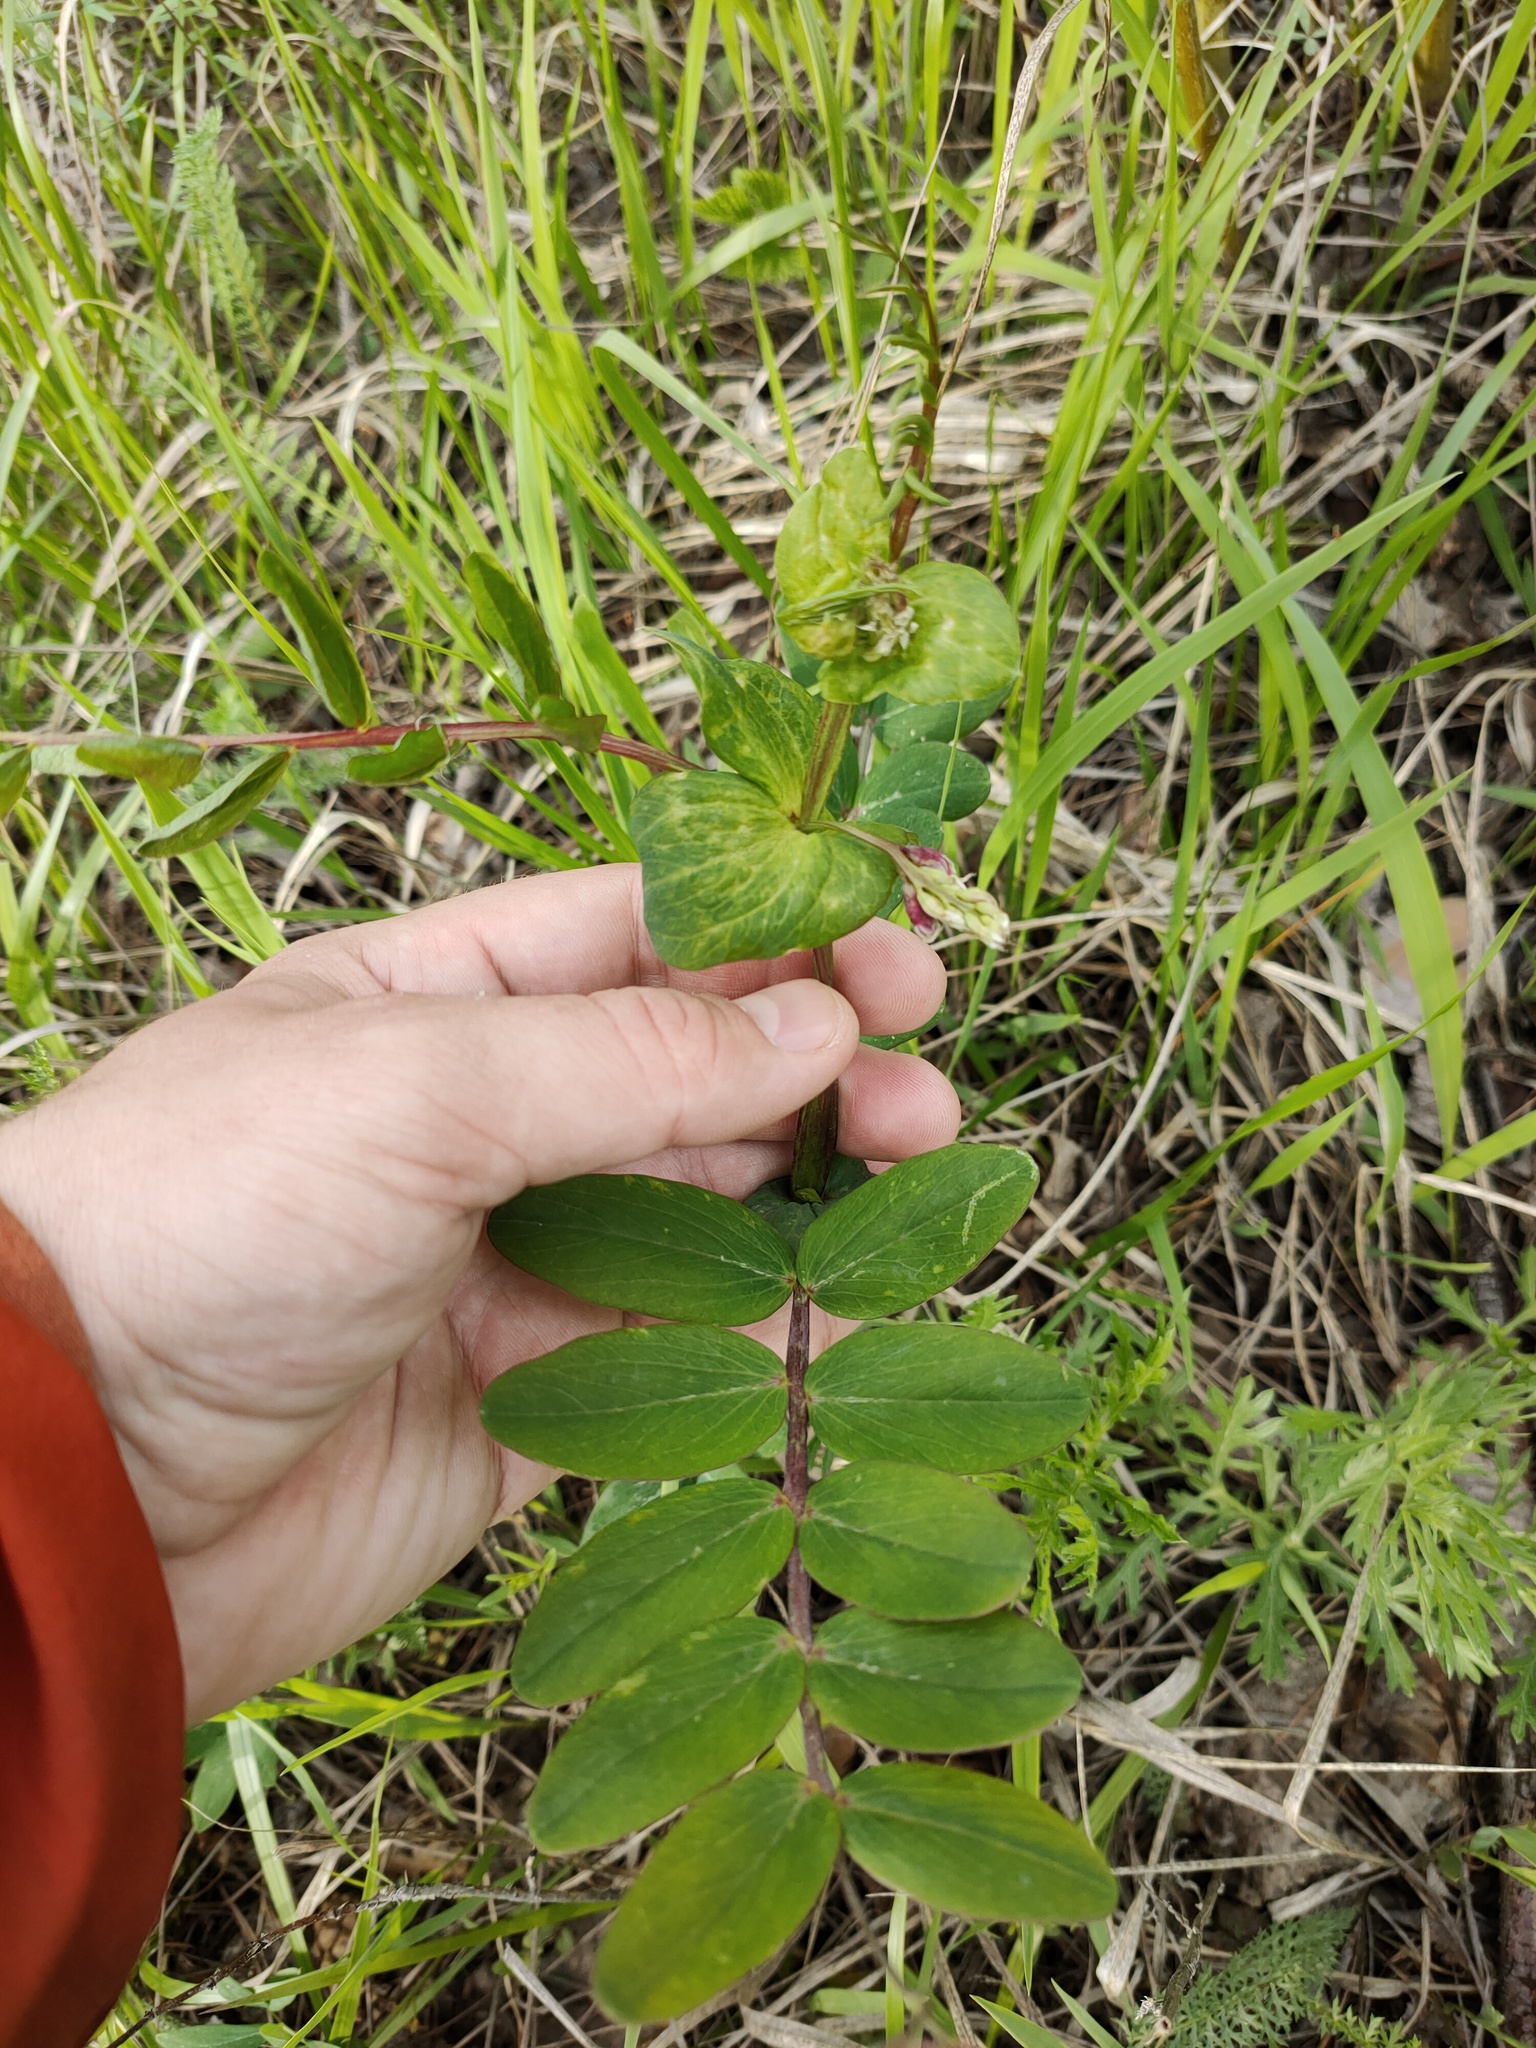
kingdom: Plantae
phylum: Tracheophyta
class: Magnoliopsida
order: Fabales
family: Fabaceae
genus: Lathyrus
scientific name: Lathyrus pisiformis
